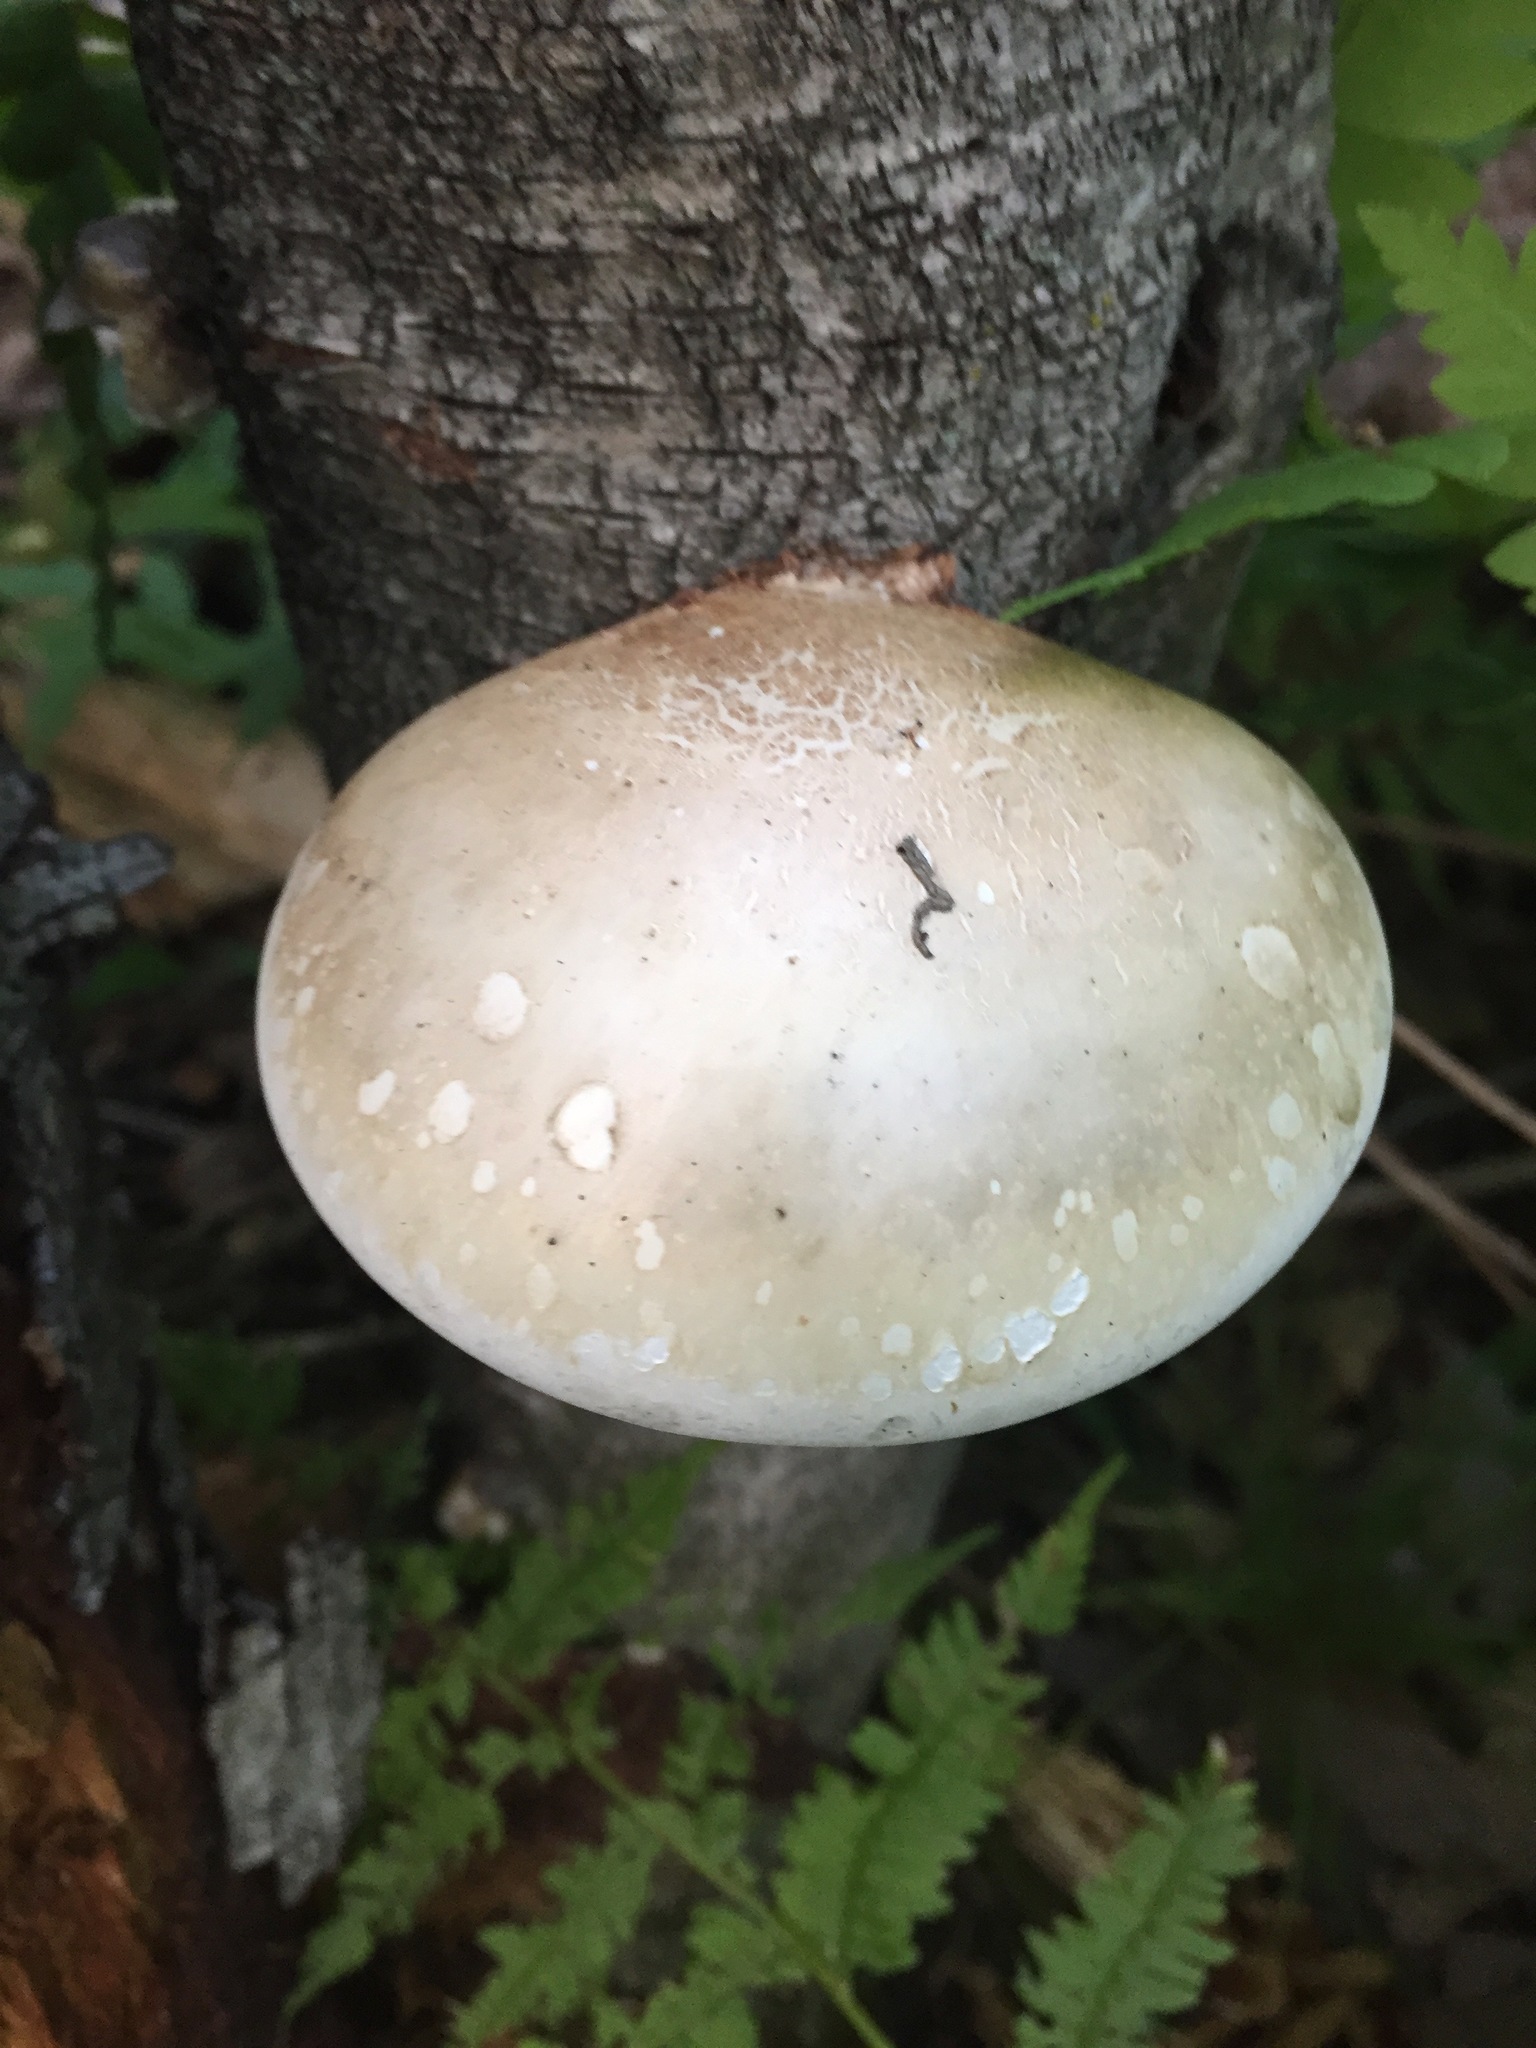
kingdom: Fungi
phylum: Basidiomycota
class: Agaricomycetes
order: Polyporales
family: Fomitopsidaceae
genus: Fomitopsis
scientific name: Fomitopsis betulina
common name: Birch polypore
